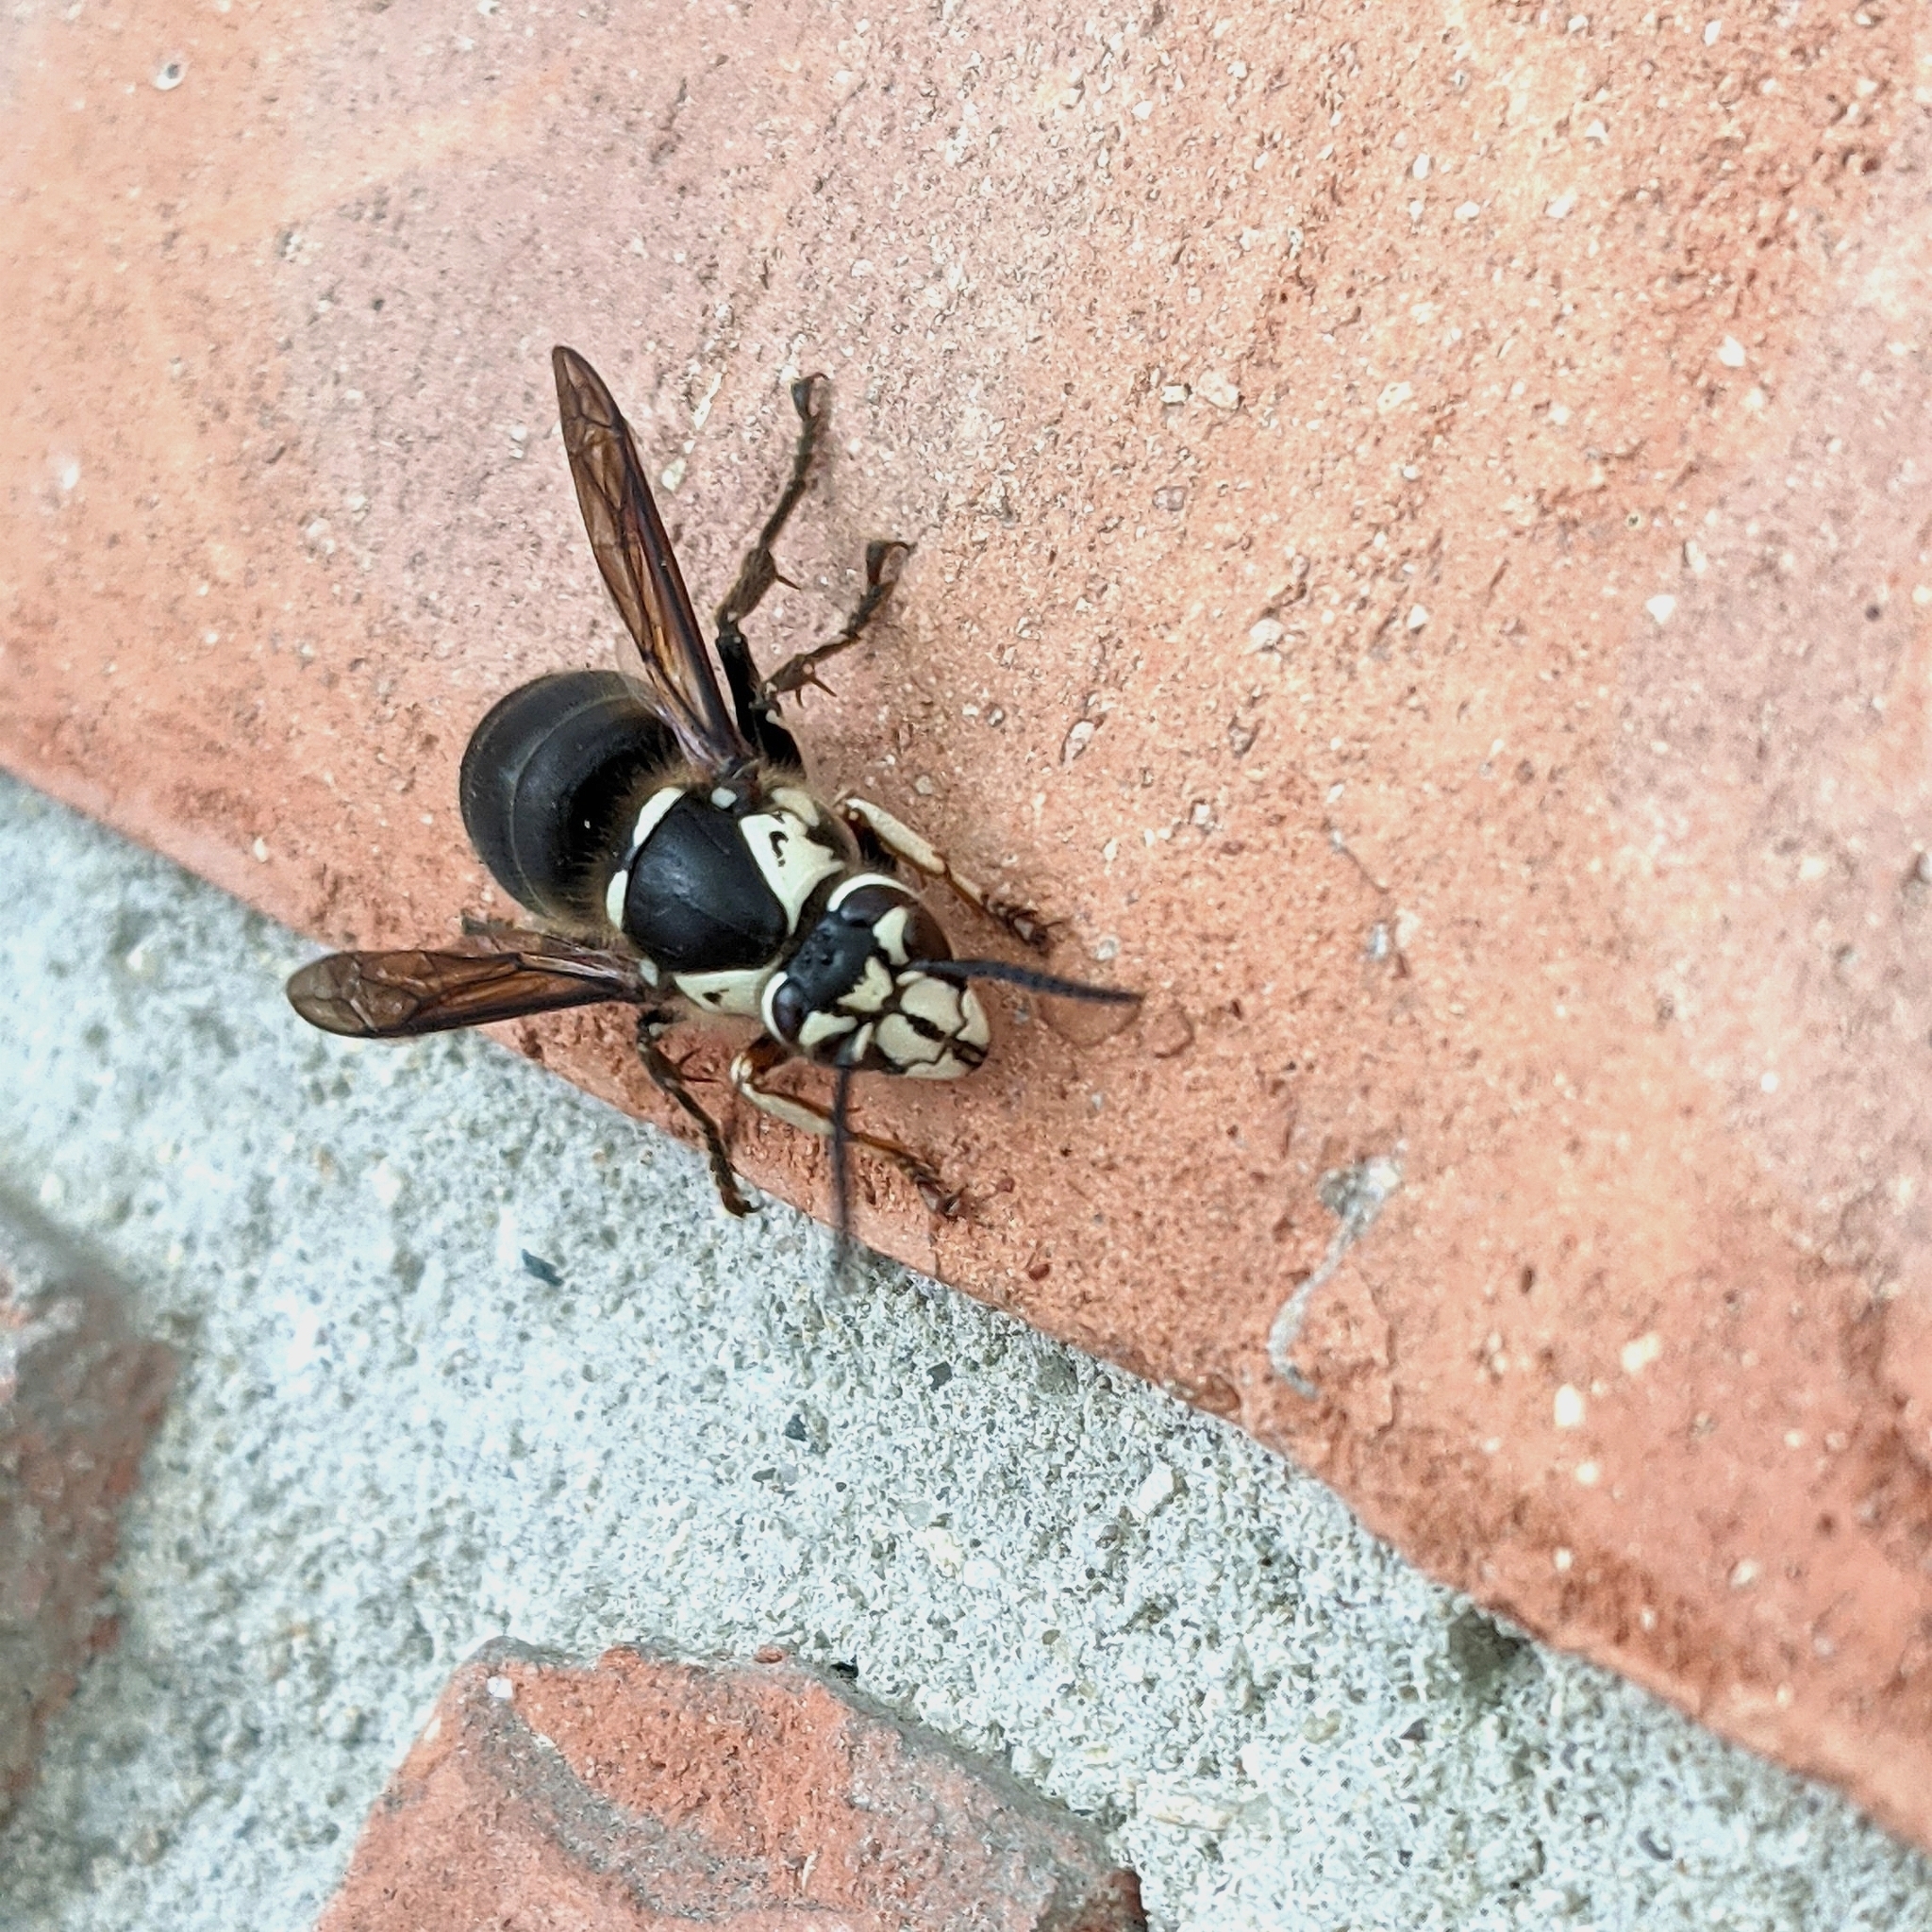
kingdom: Animalia
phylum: Arthropoda
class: Insecta
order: Hymenoptera
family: Vespidae
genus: Dolichovespula
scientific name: Dolichovespula maculata
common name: Bald-faced hornet
